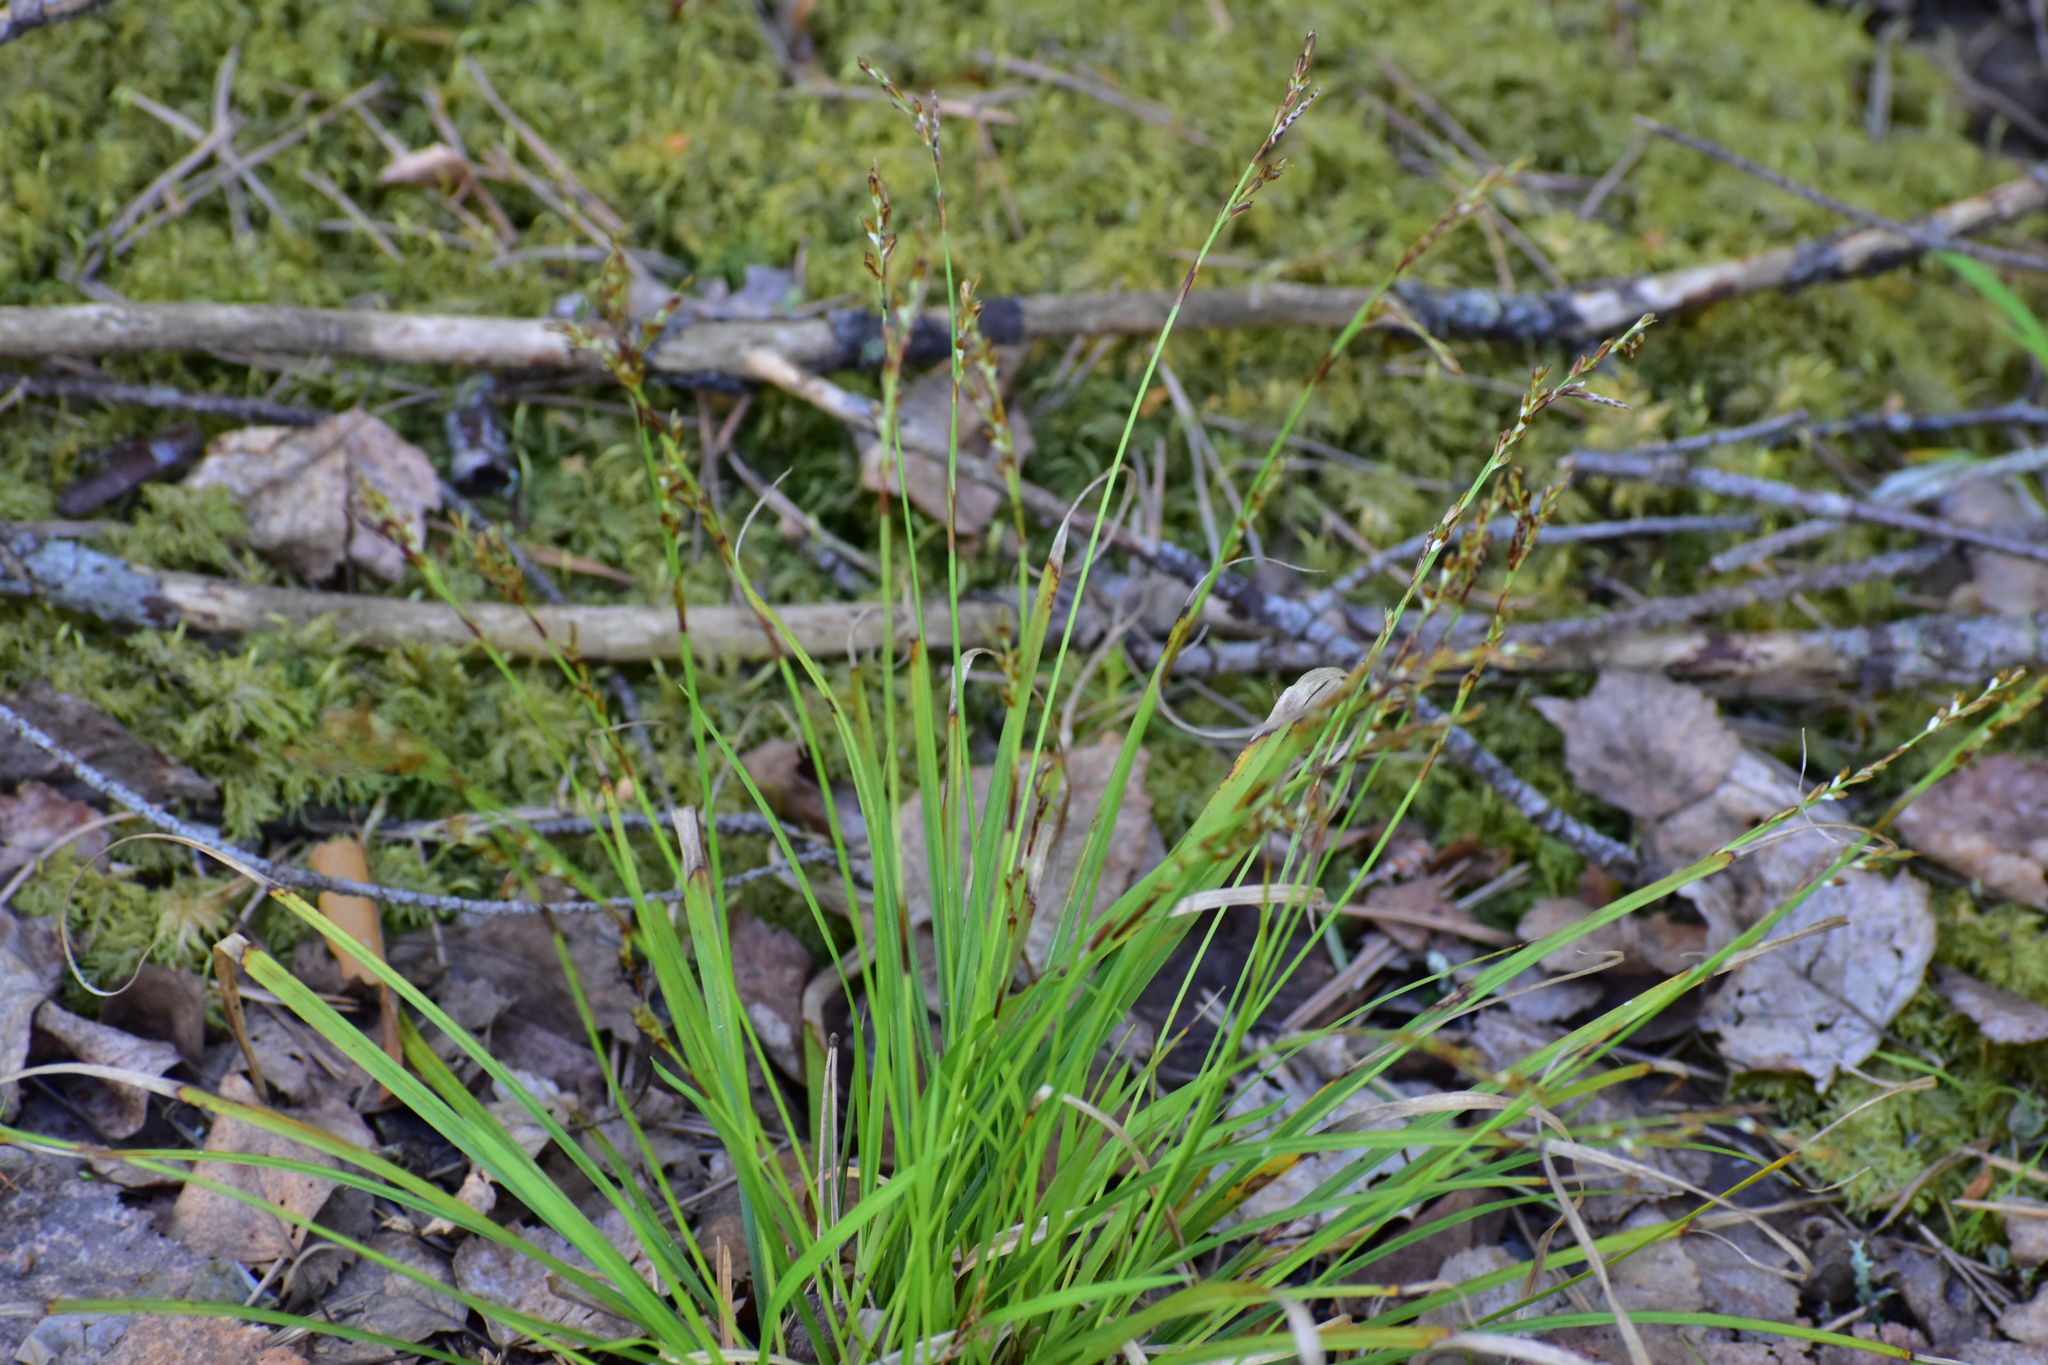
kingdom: Plantae
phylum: Tracheophyta
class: Liliopsida
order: Poales
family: Cyperaceae
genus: Carex
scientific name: Carex digitata
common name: Fingered sedge
